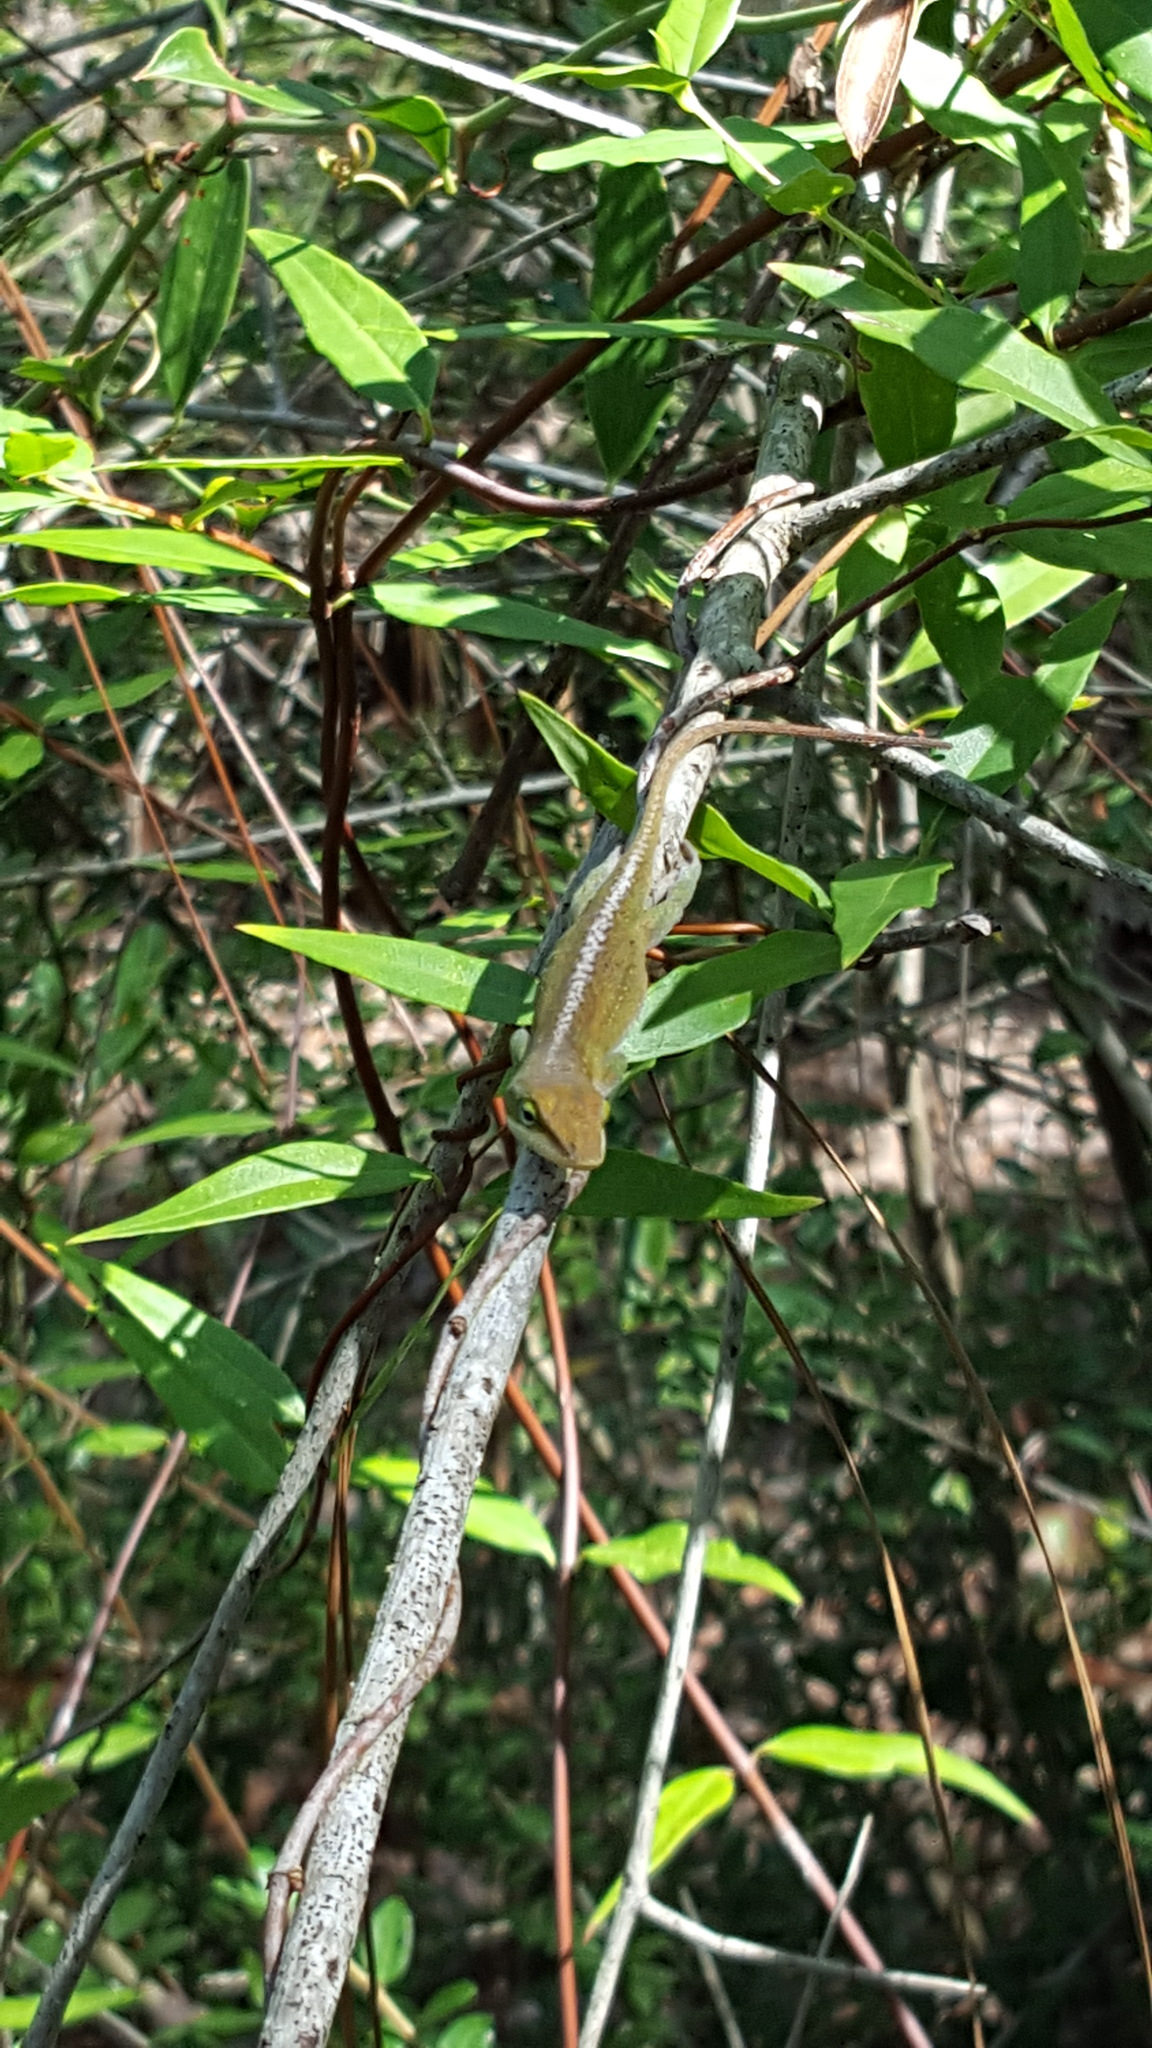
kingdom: Animalia
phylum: Chordata
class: Squamata
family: Dactyloidae
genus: Anolis
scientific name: Anolis carolinensis
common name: Green anole
